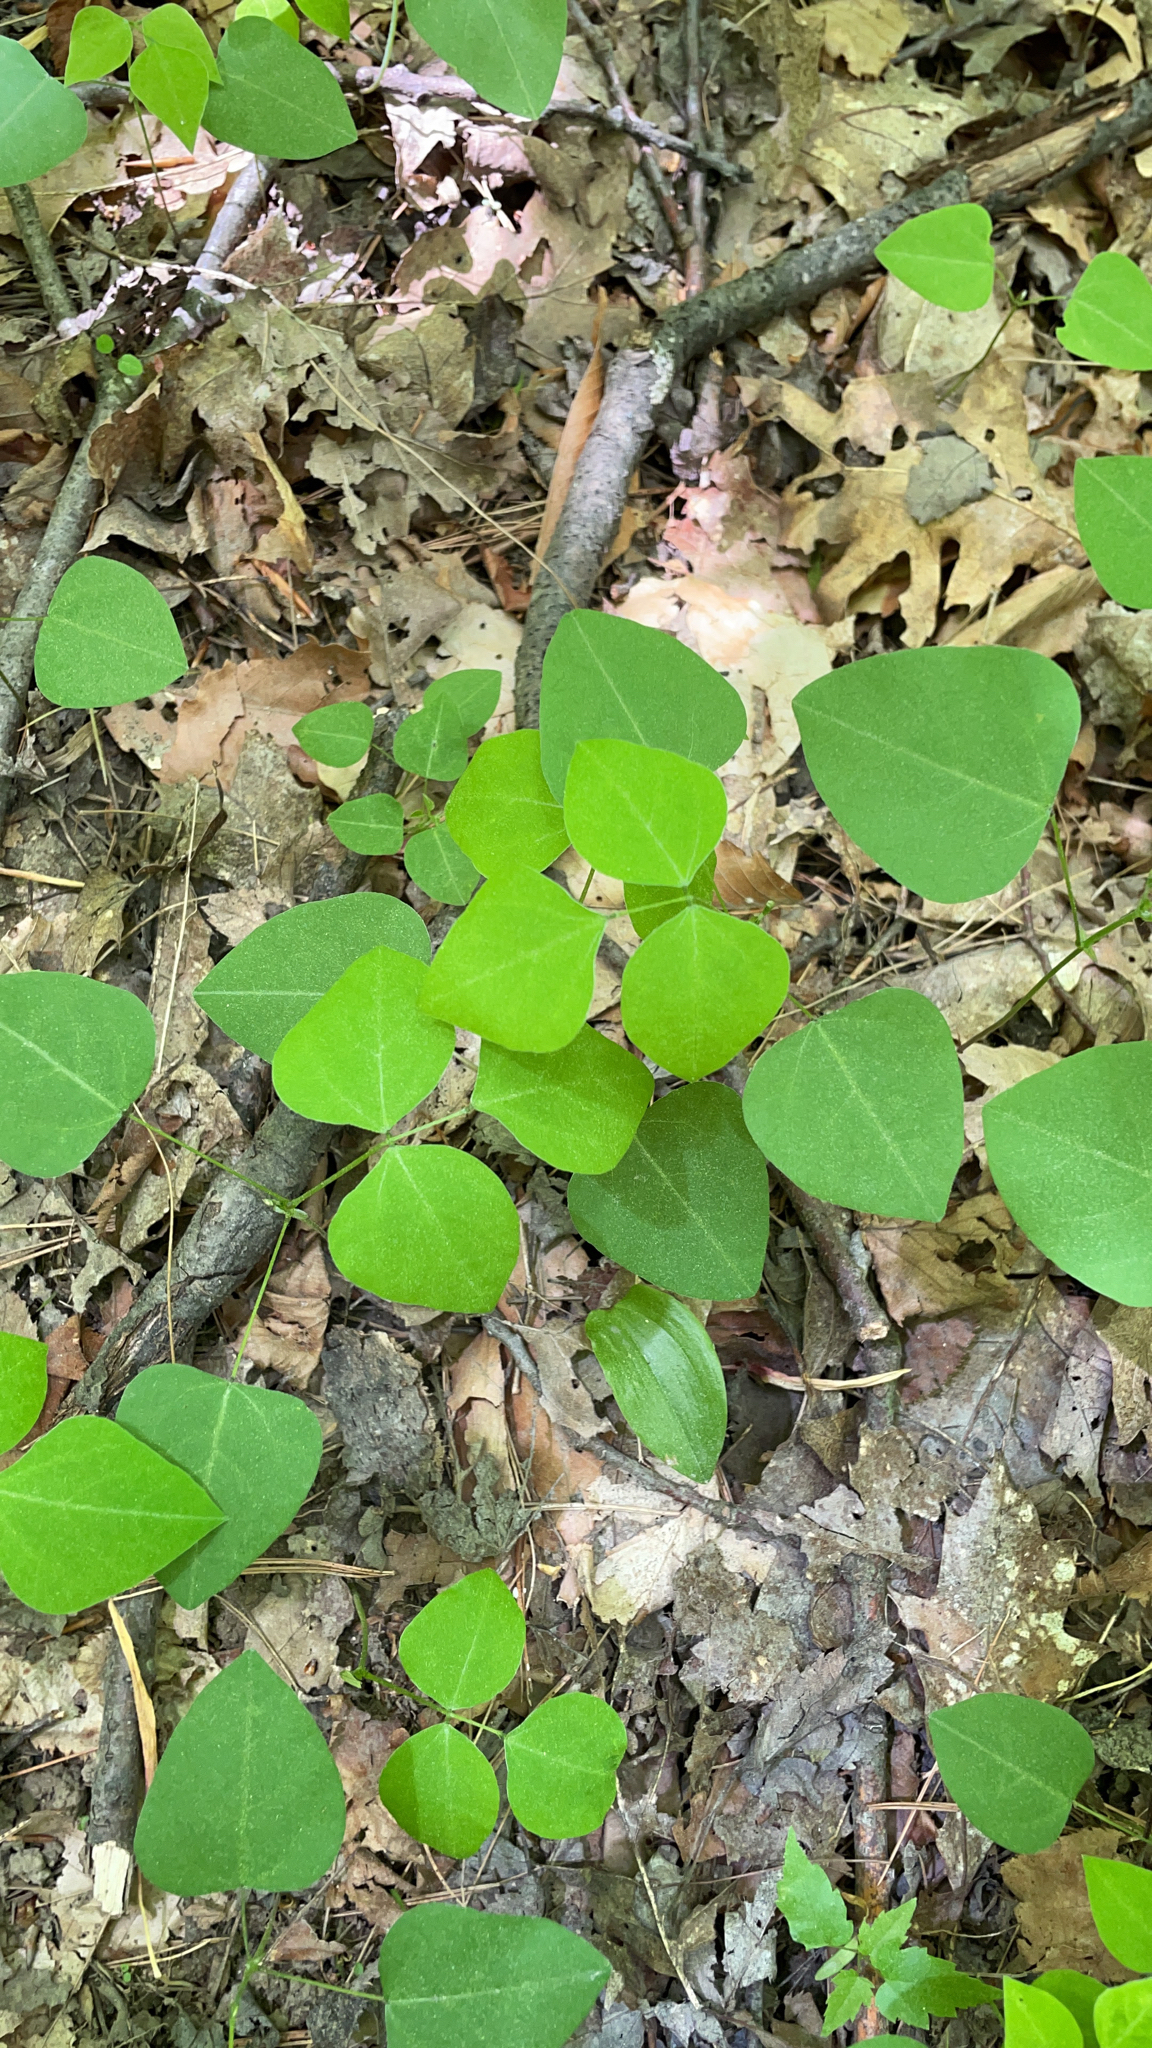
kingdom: Plantae
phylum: Tracheophyta
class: Magnoliopsida
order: Fabales
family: Fabaceae
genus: Amphicarpaea
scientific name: Amphicarpaea bracteata
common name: American hog peanut
